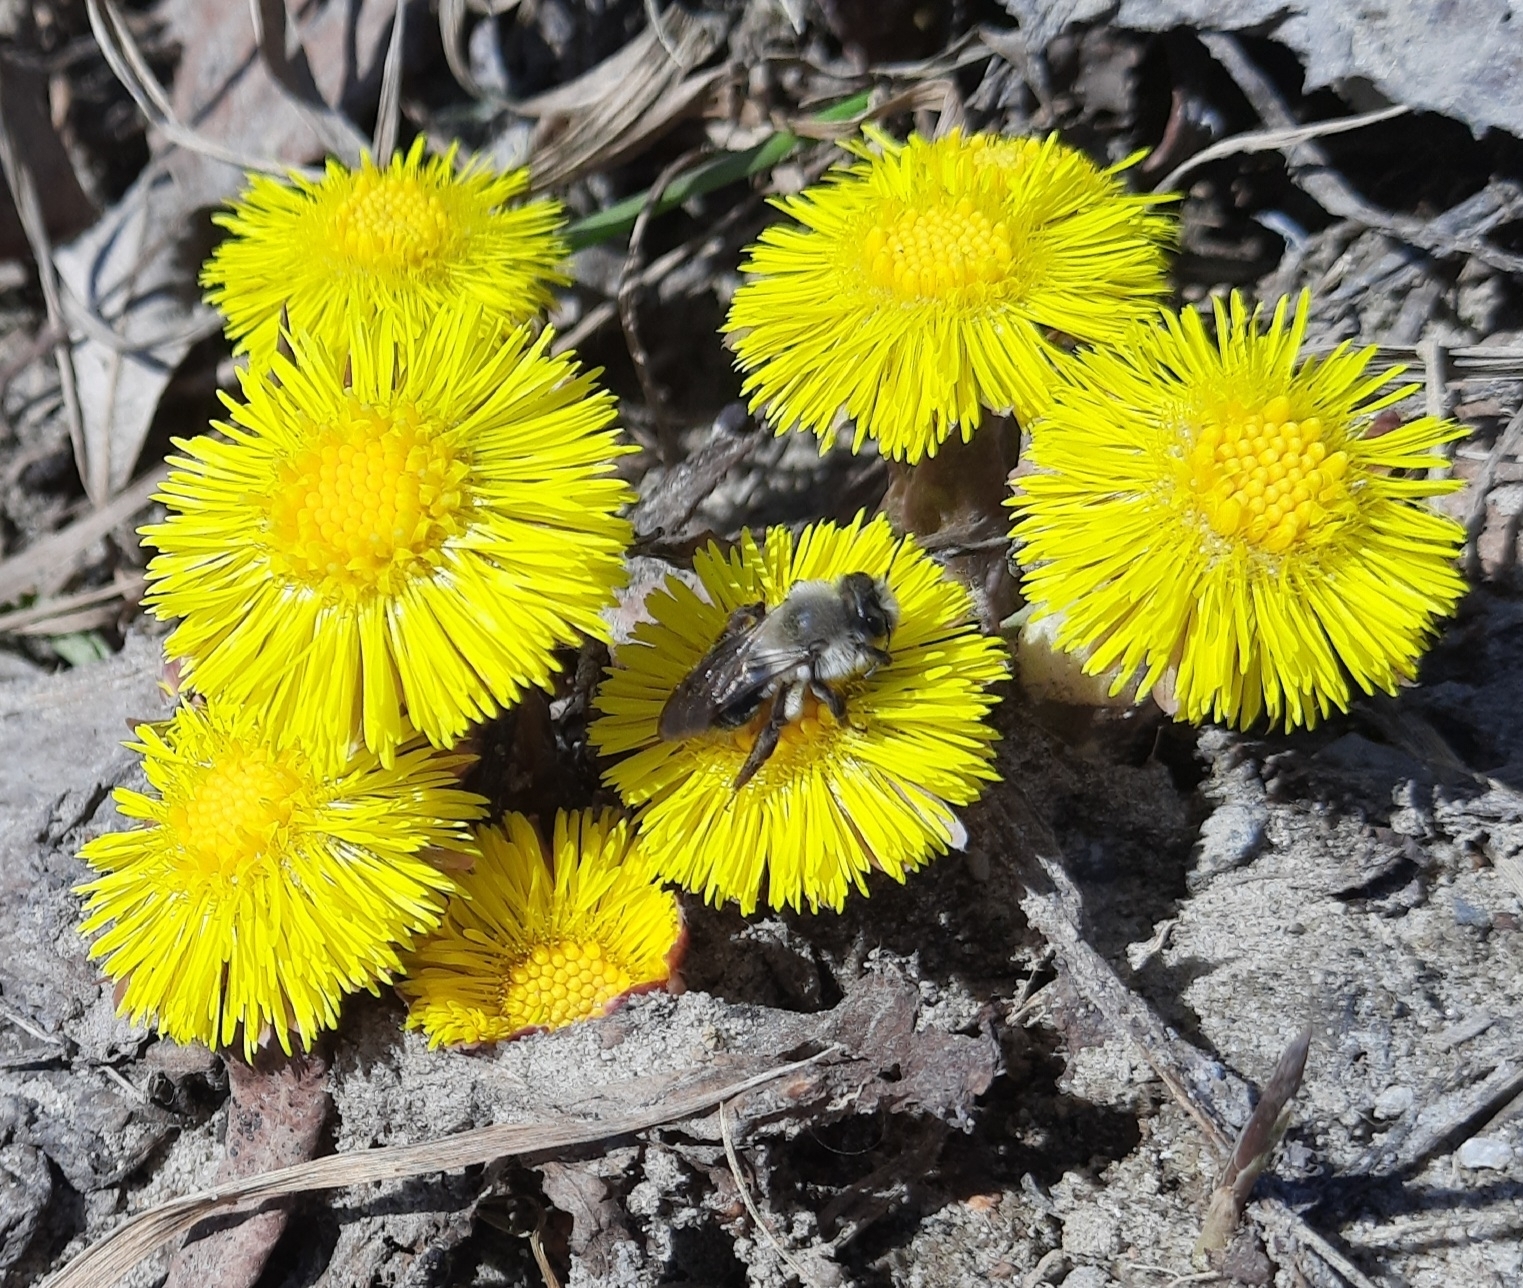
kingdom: Animalia
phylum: Arthropoda
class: Insecta
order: Hymenoptera
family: Andrenidae
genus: Andrena
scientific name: Andrena vaga
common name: Grey-backed mining bee
